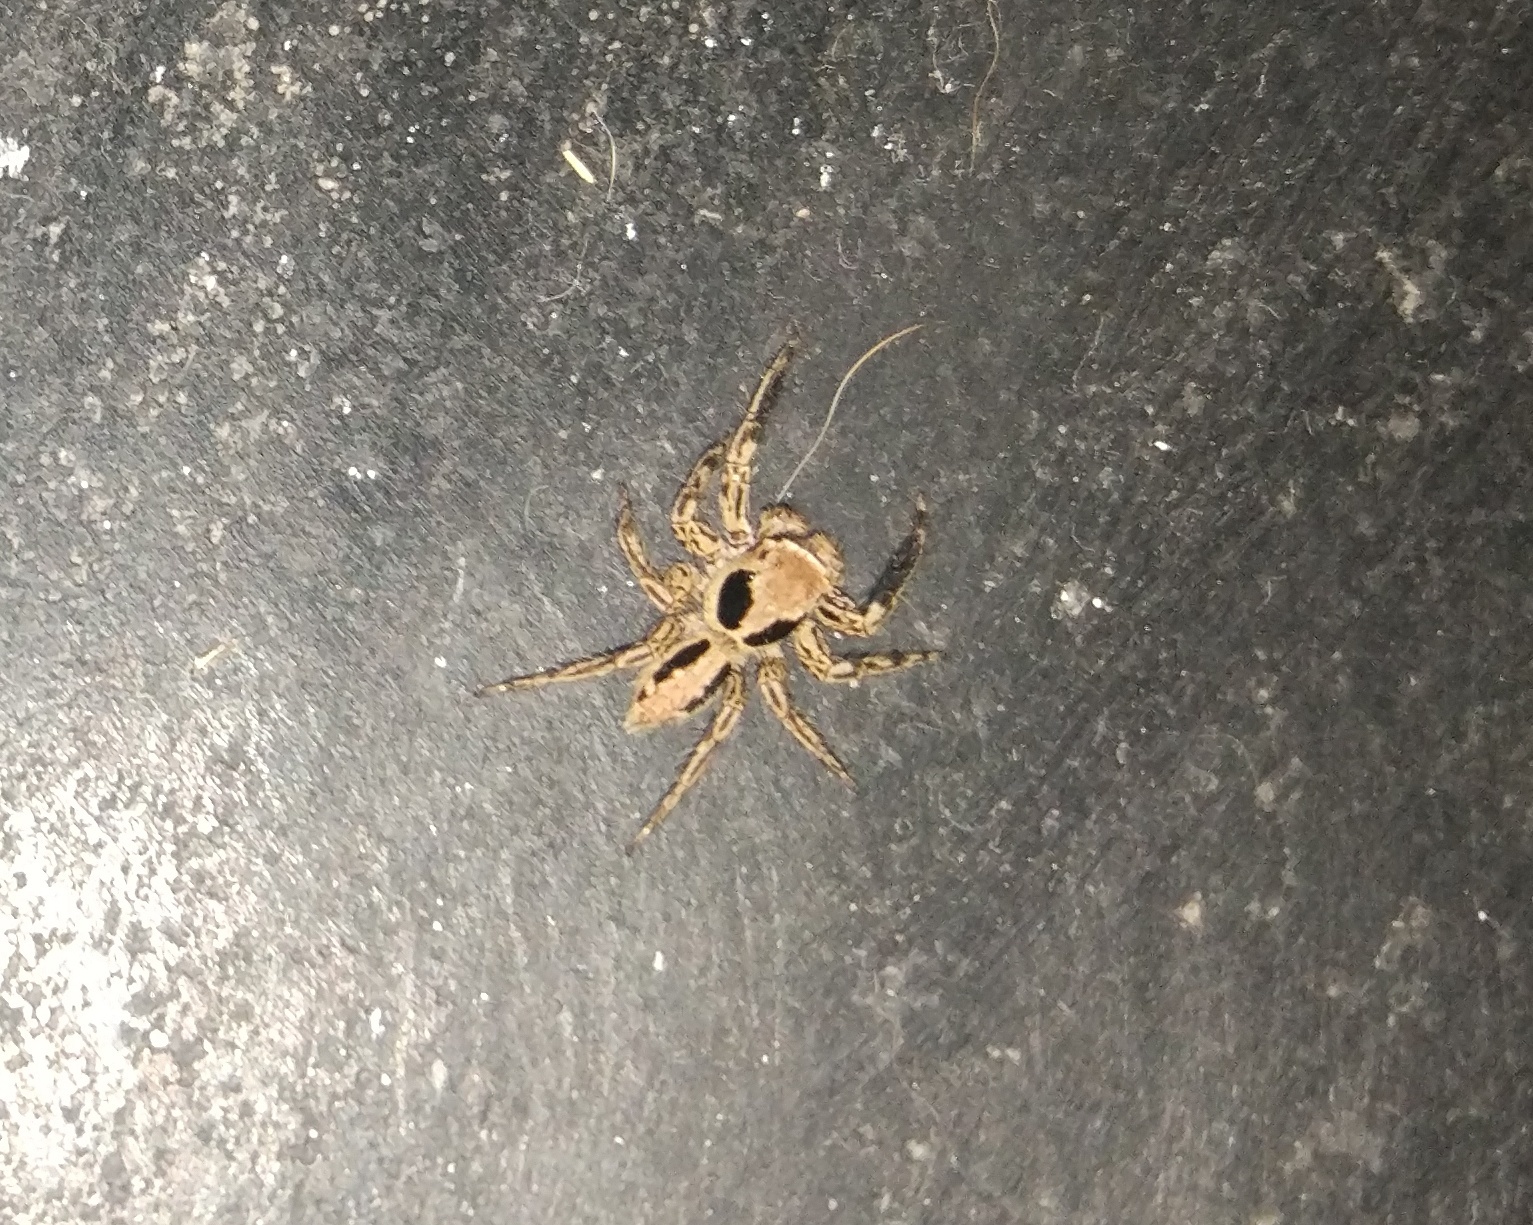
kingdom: Animalia
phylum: Arthropoda
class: Arachnida
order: Araneae
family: Salticidae
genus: Plexippus
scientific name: Plexippus petersi
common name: Jumping spider
